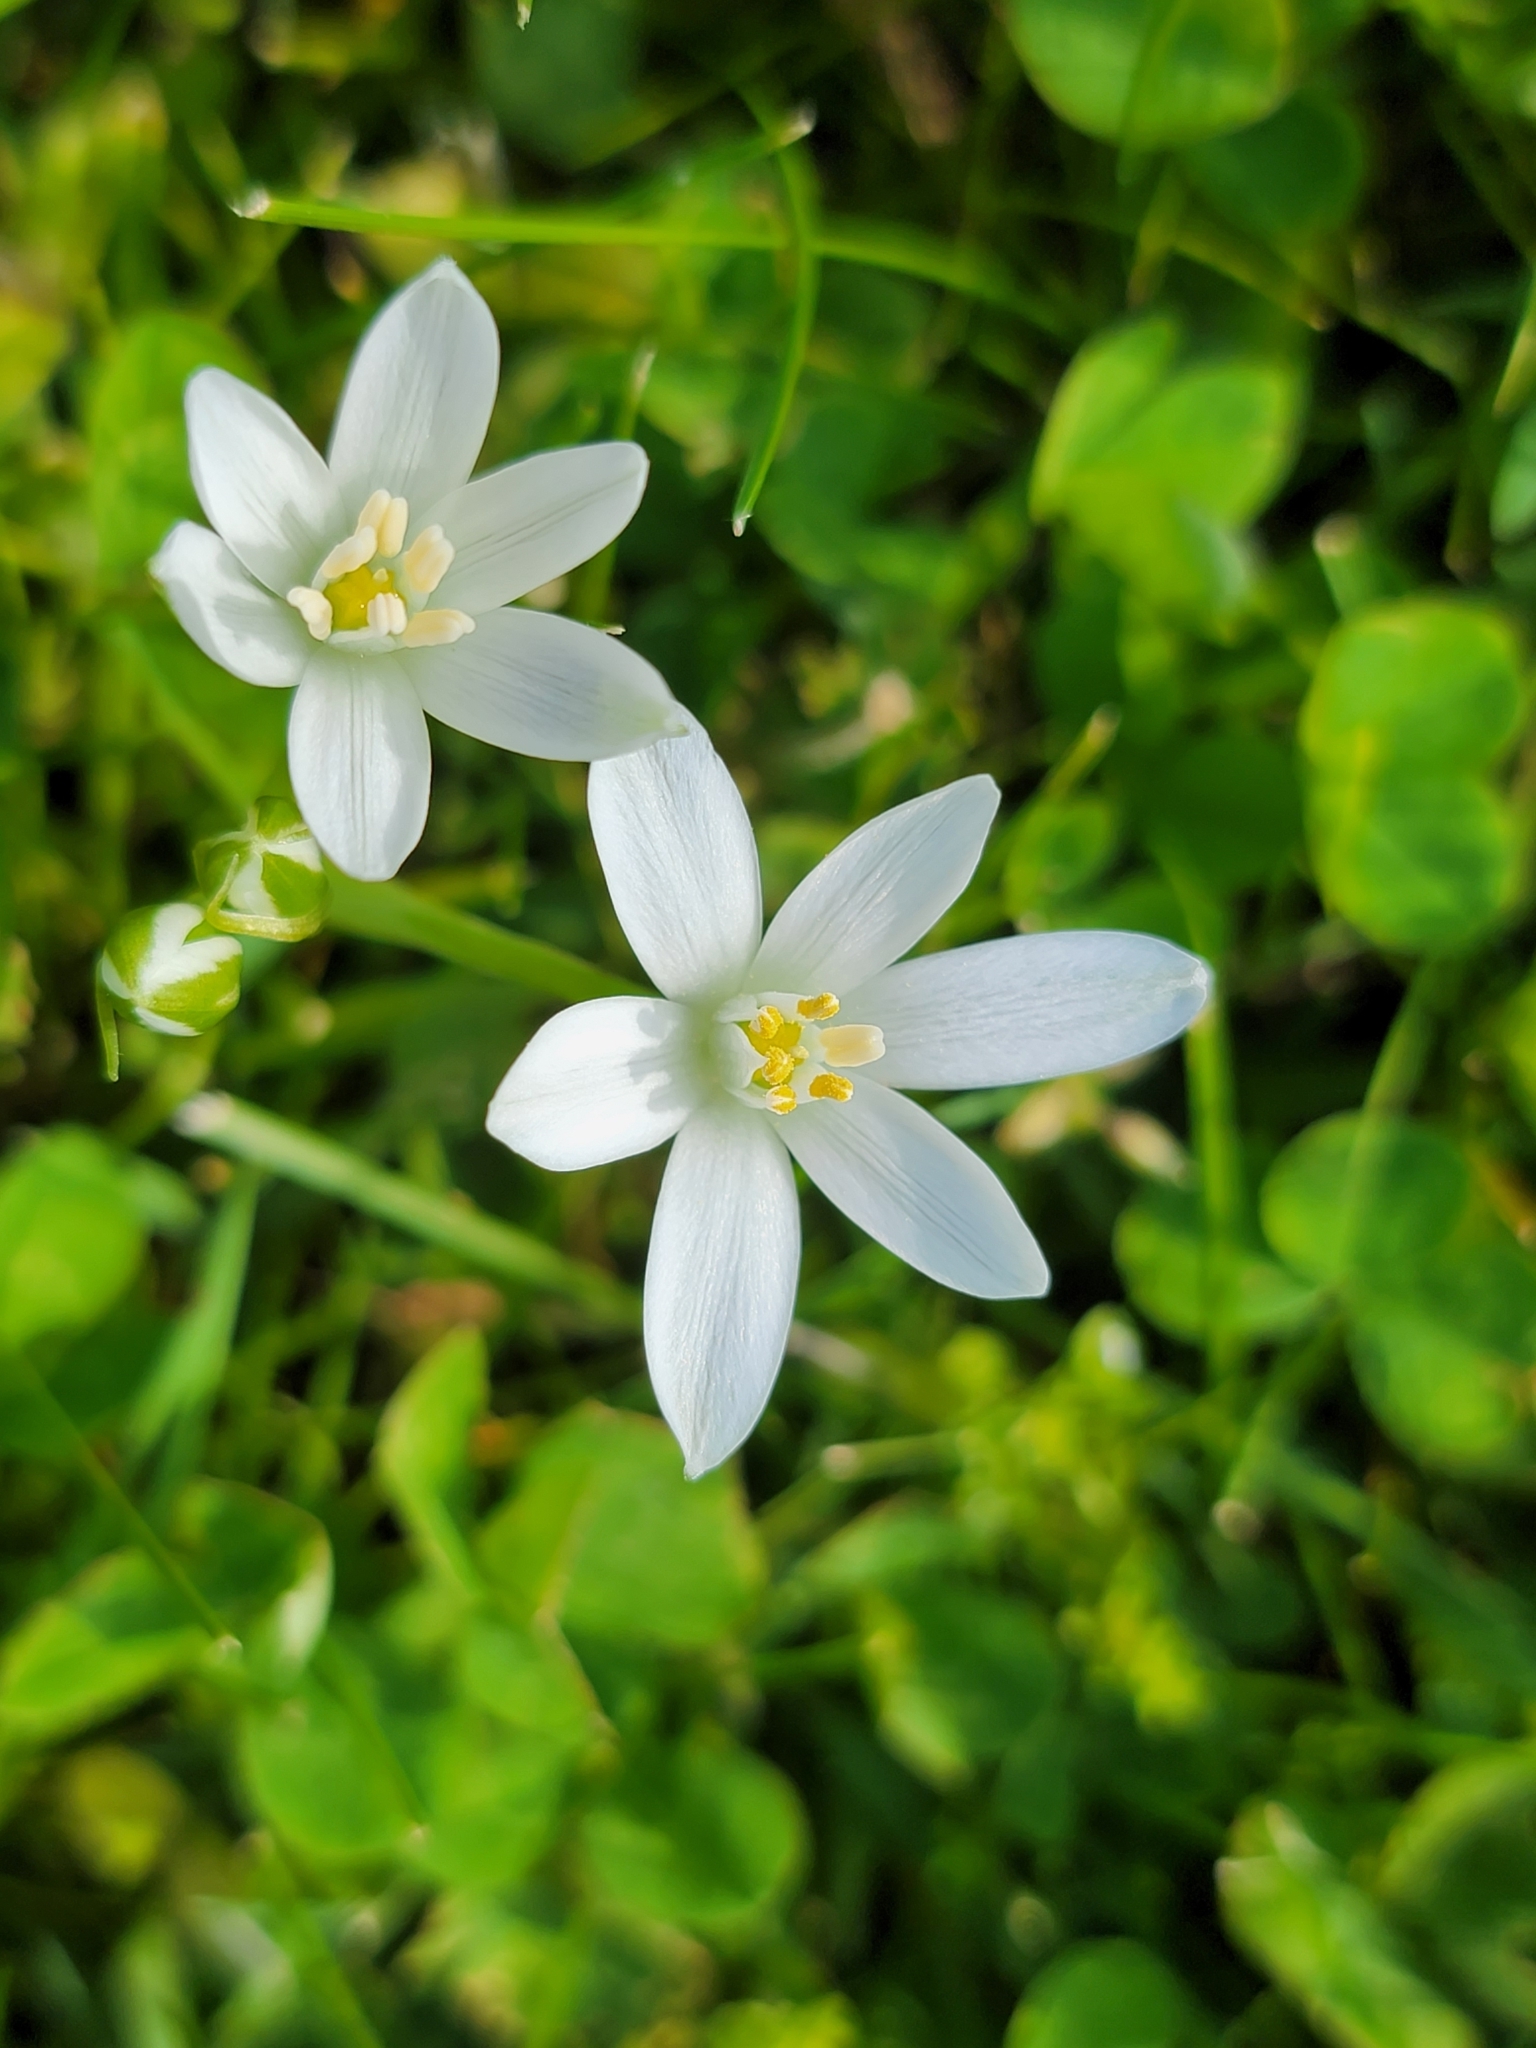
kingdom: Plantae
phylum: Tracheophyta
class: Liliopsida
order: Asparagales
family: Asparagaceae
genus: Ornithogalum
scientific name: Ornithogalum umbellatum
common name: Garden star-of-bethlehem
